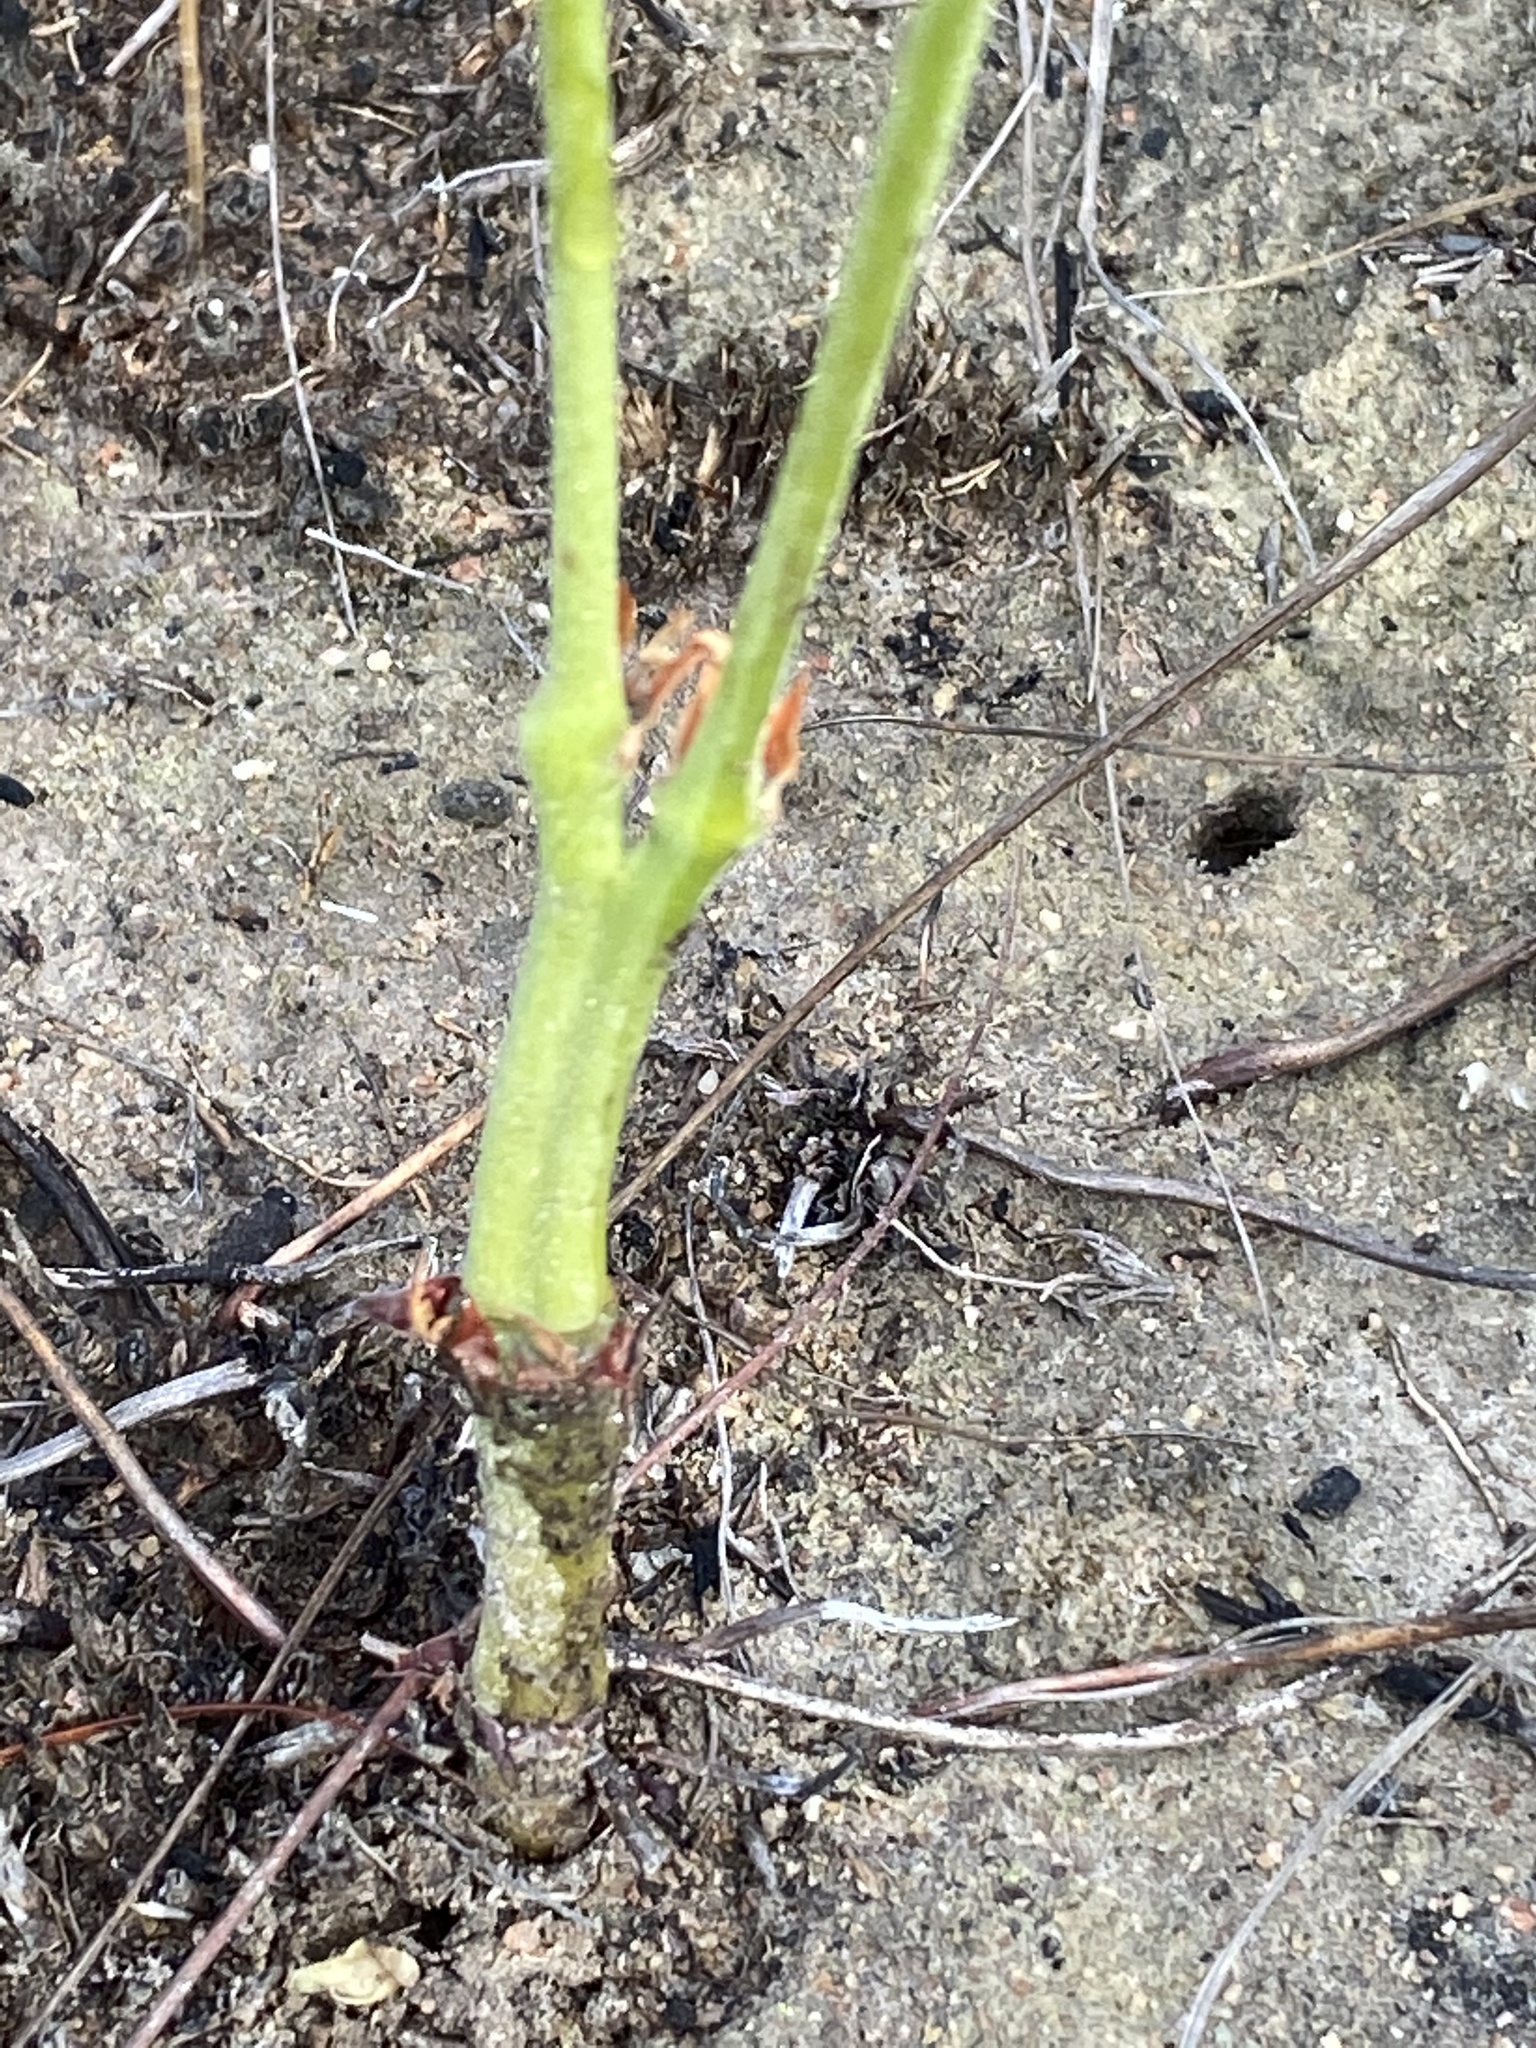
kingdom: Plantae
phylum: Tracheophyta
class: Magnoliopsida
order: Geraniales
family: Geraniaceae
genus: Pelargonium
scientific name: Pelargonium pillansii
